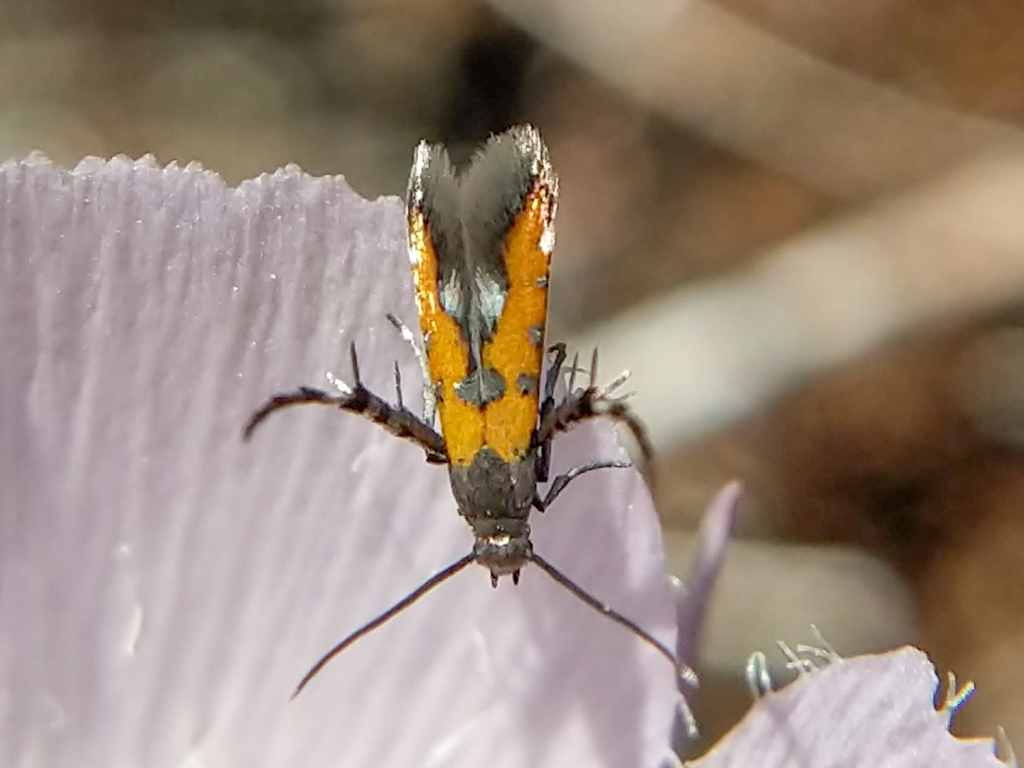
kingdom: Animalia
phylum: Arthropoda
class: Insecta
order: Lepidoptera
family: Heliodinidae
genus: Heliodines
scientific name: Heliodines Aetole extraneella
